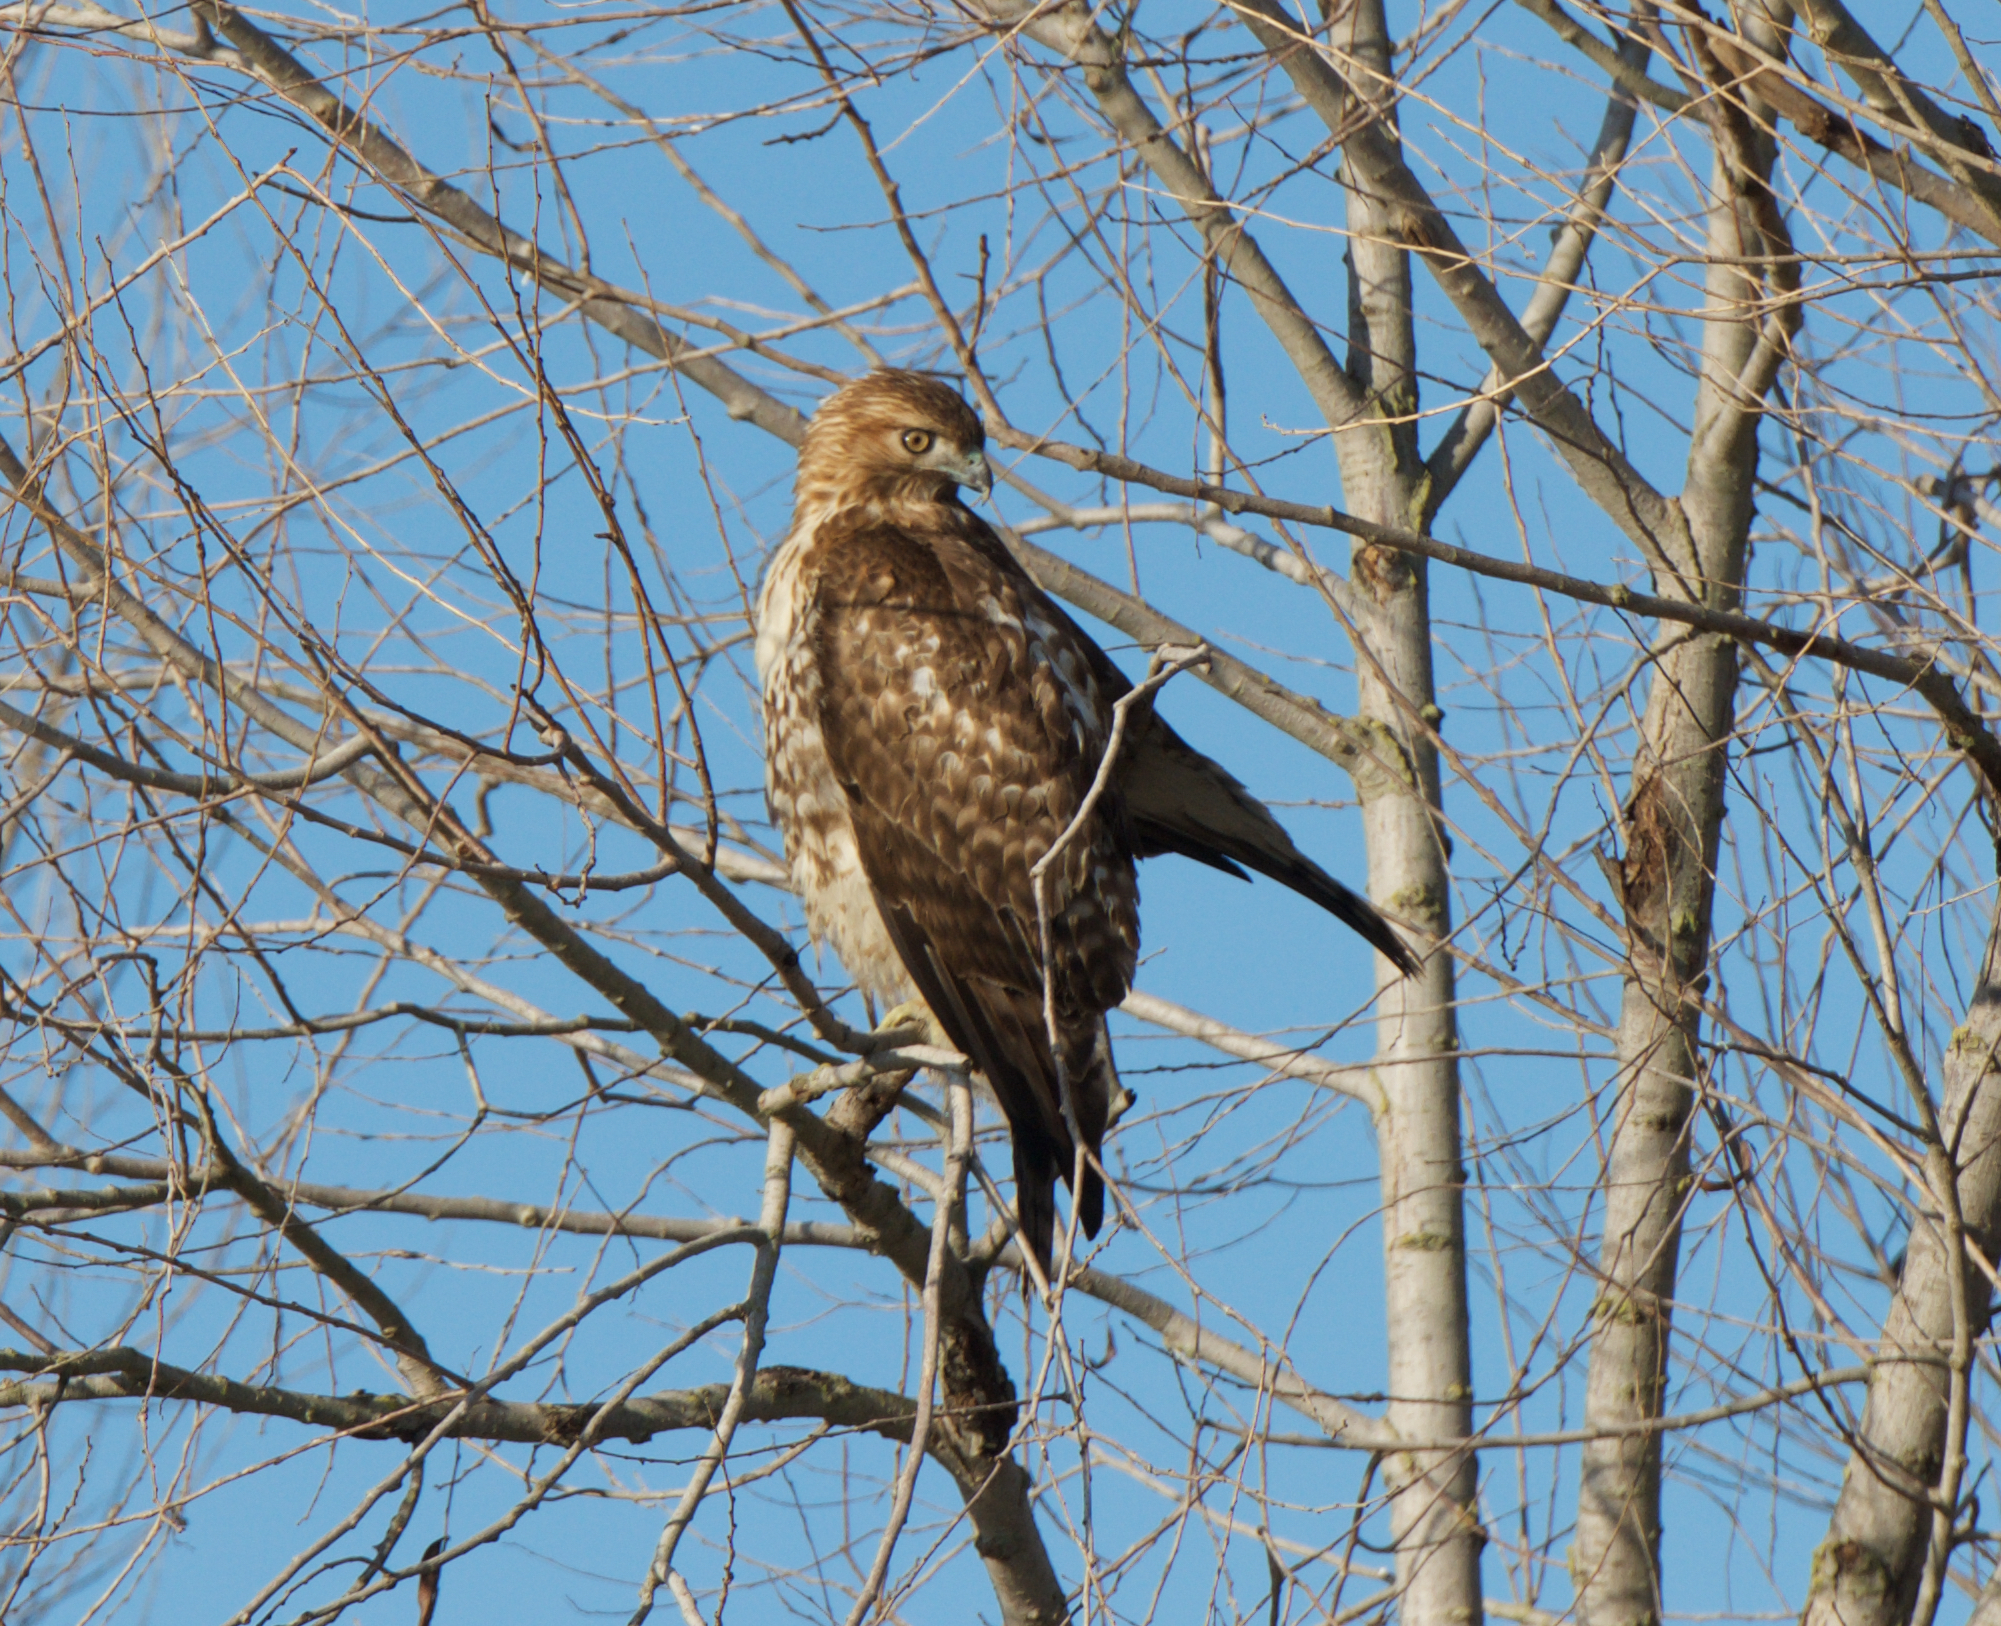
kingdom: Animalia
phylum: Chordata
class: Aves
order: Accipitriformes
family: Accipitridae
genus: Buteo
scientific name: Buteo jamaicensis
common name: Red-tailed hawk
